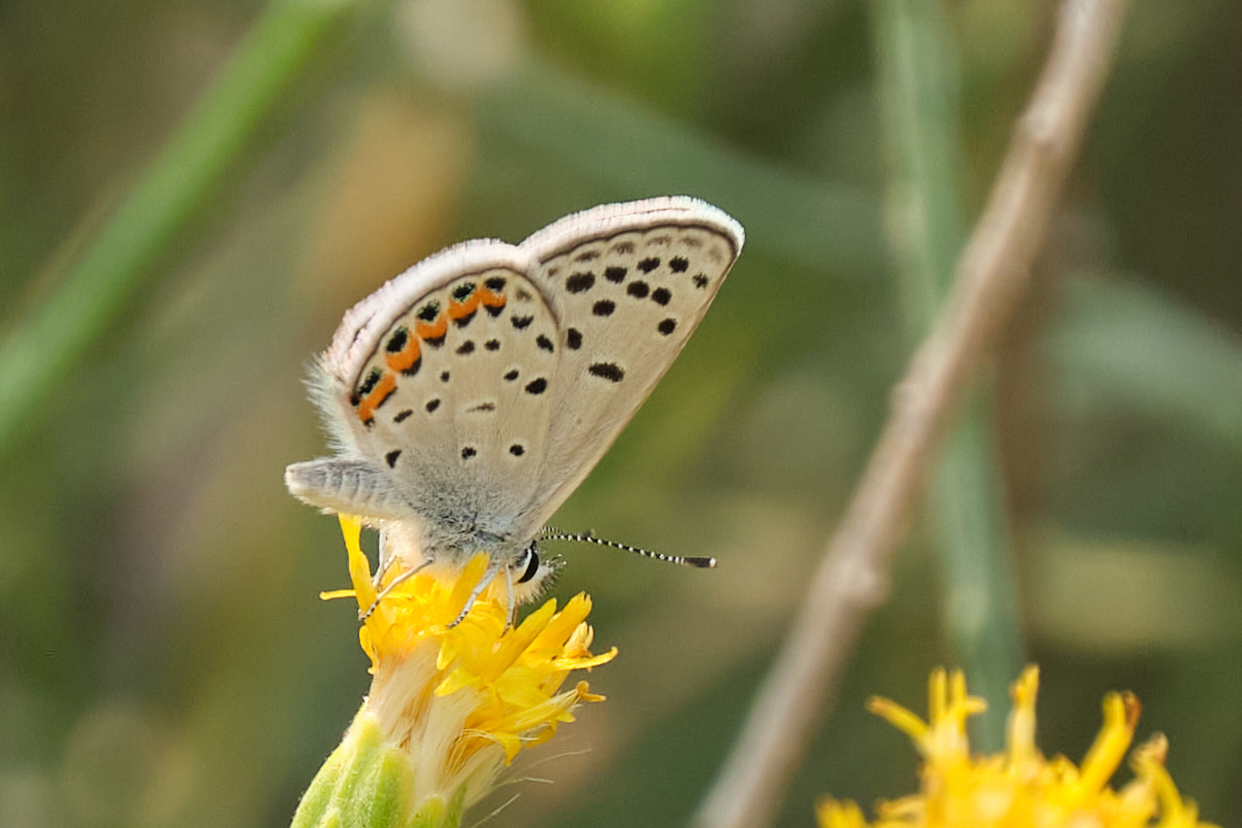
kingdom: Animalia
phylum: Arthropoda
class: Insecta
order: Lepidoptera
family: Lycaenidae
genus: Icaricia
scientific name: Icaricia acmon
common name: Acmon blue
